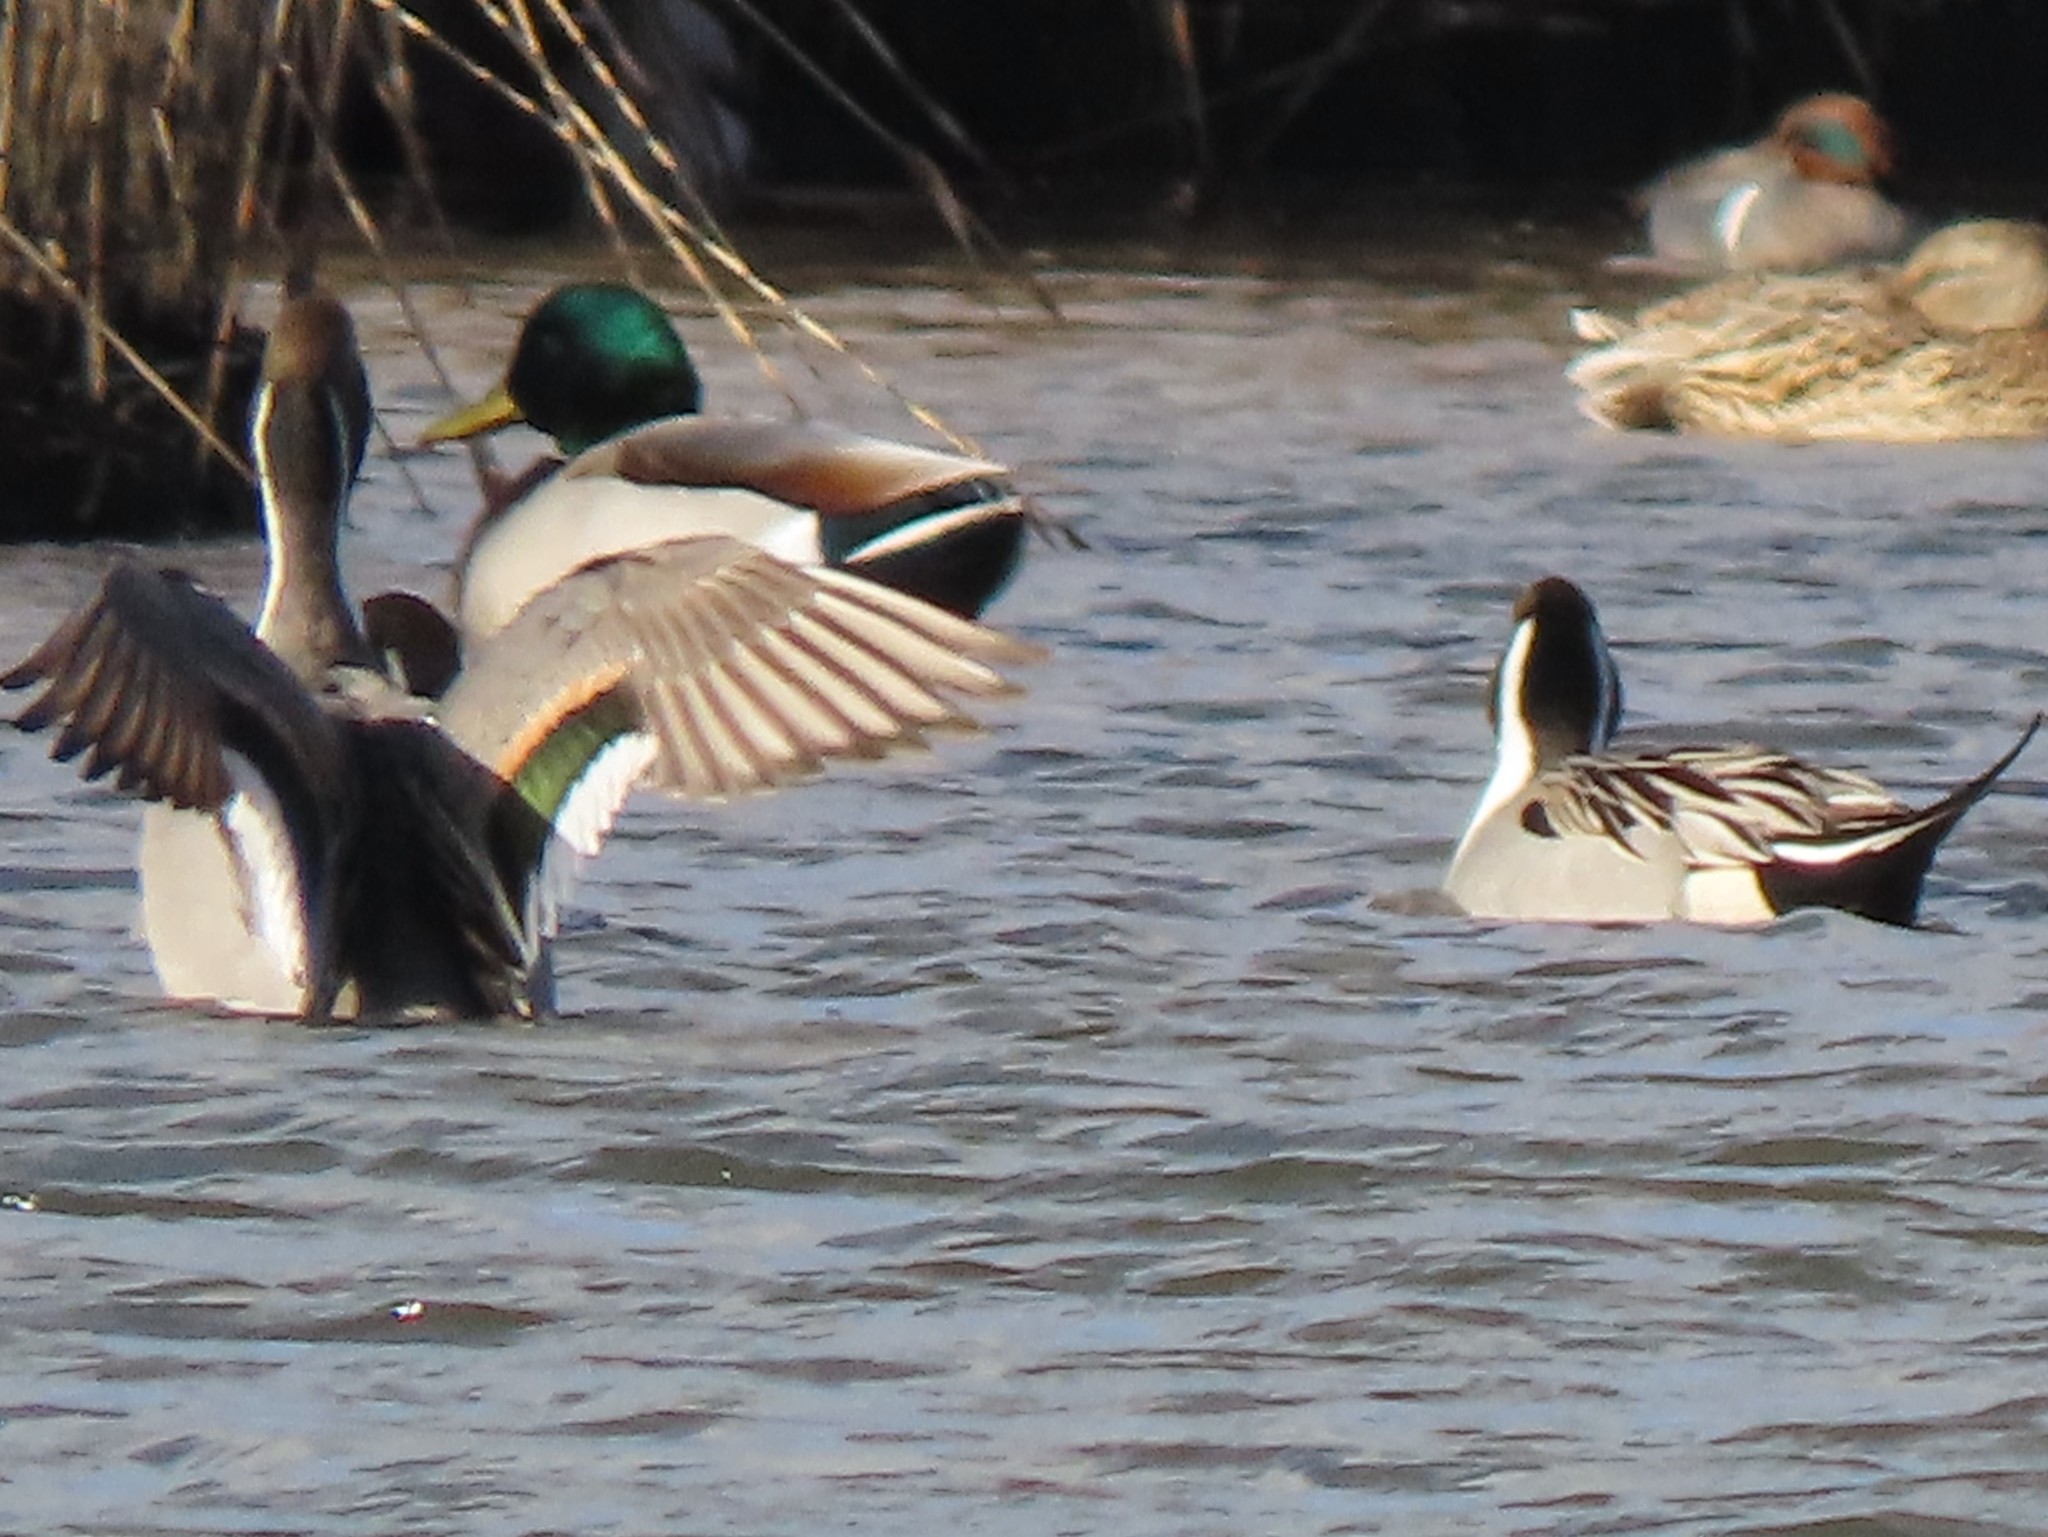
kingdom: Animalia
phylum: Chordata
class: Aves
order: Anseriformes
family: Anatidae
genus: Anas
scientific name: Anas acuta
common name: Northern pintail
